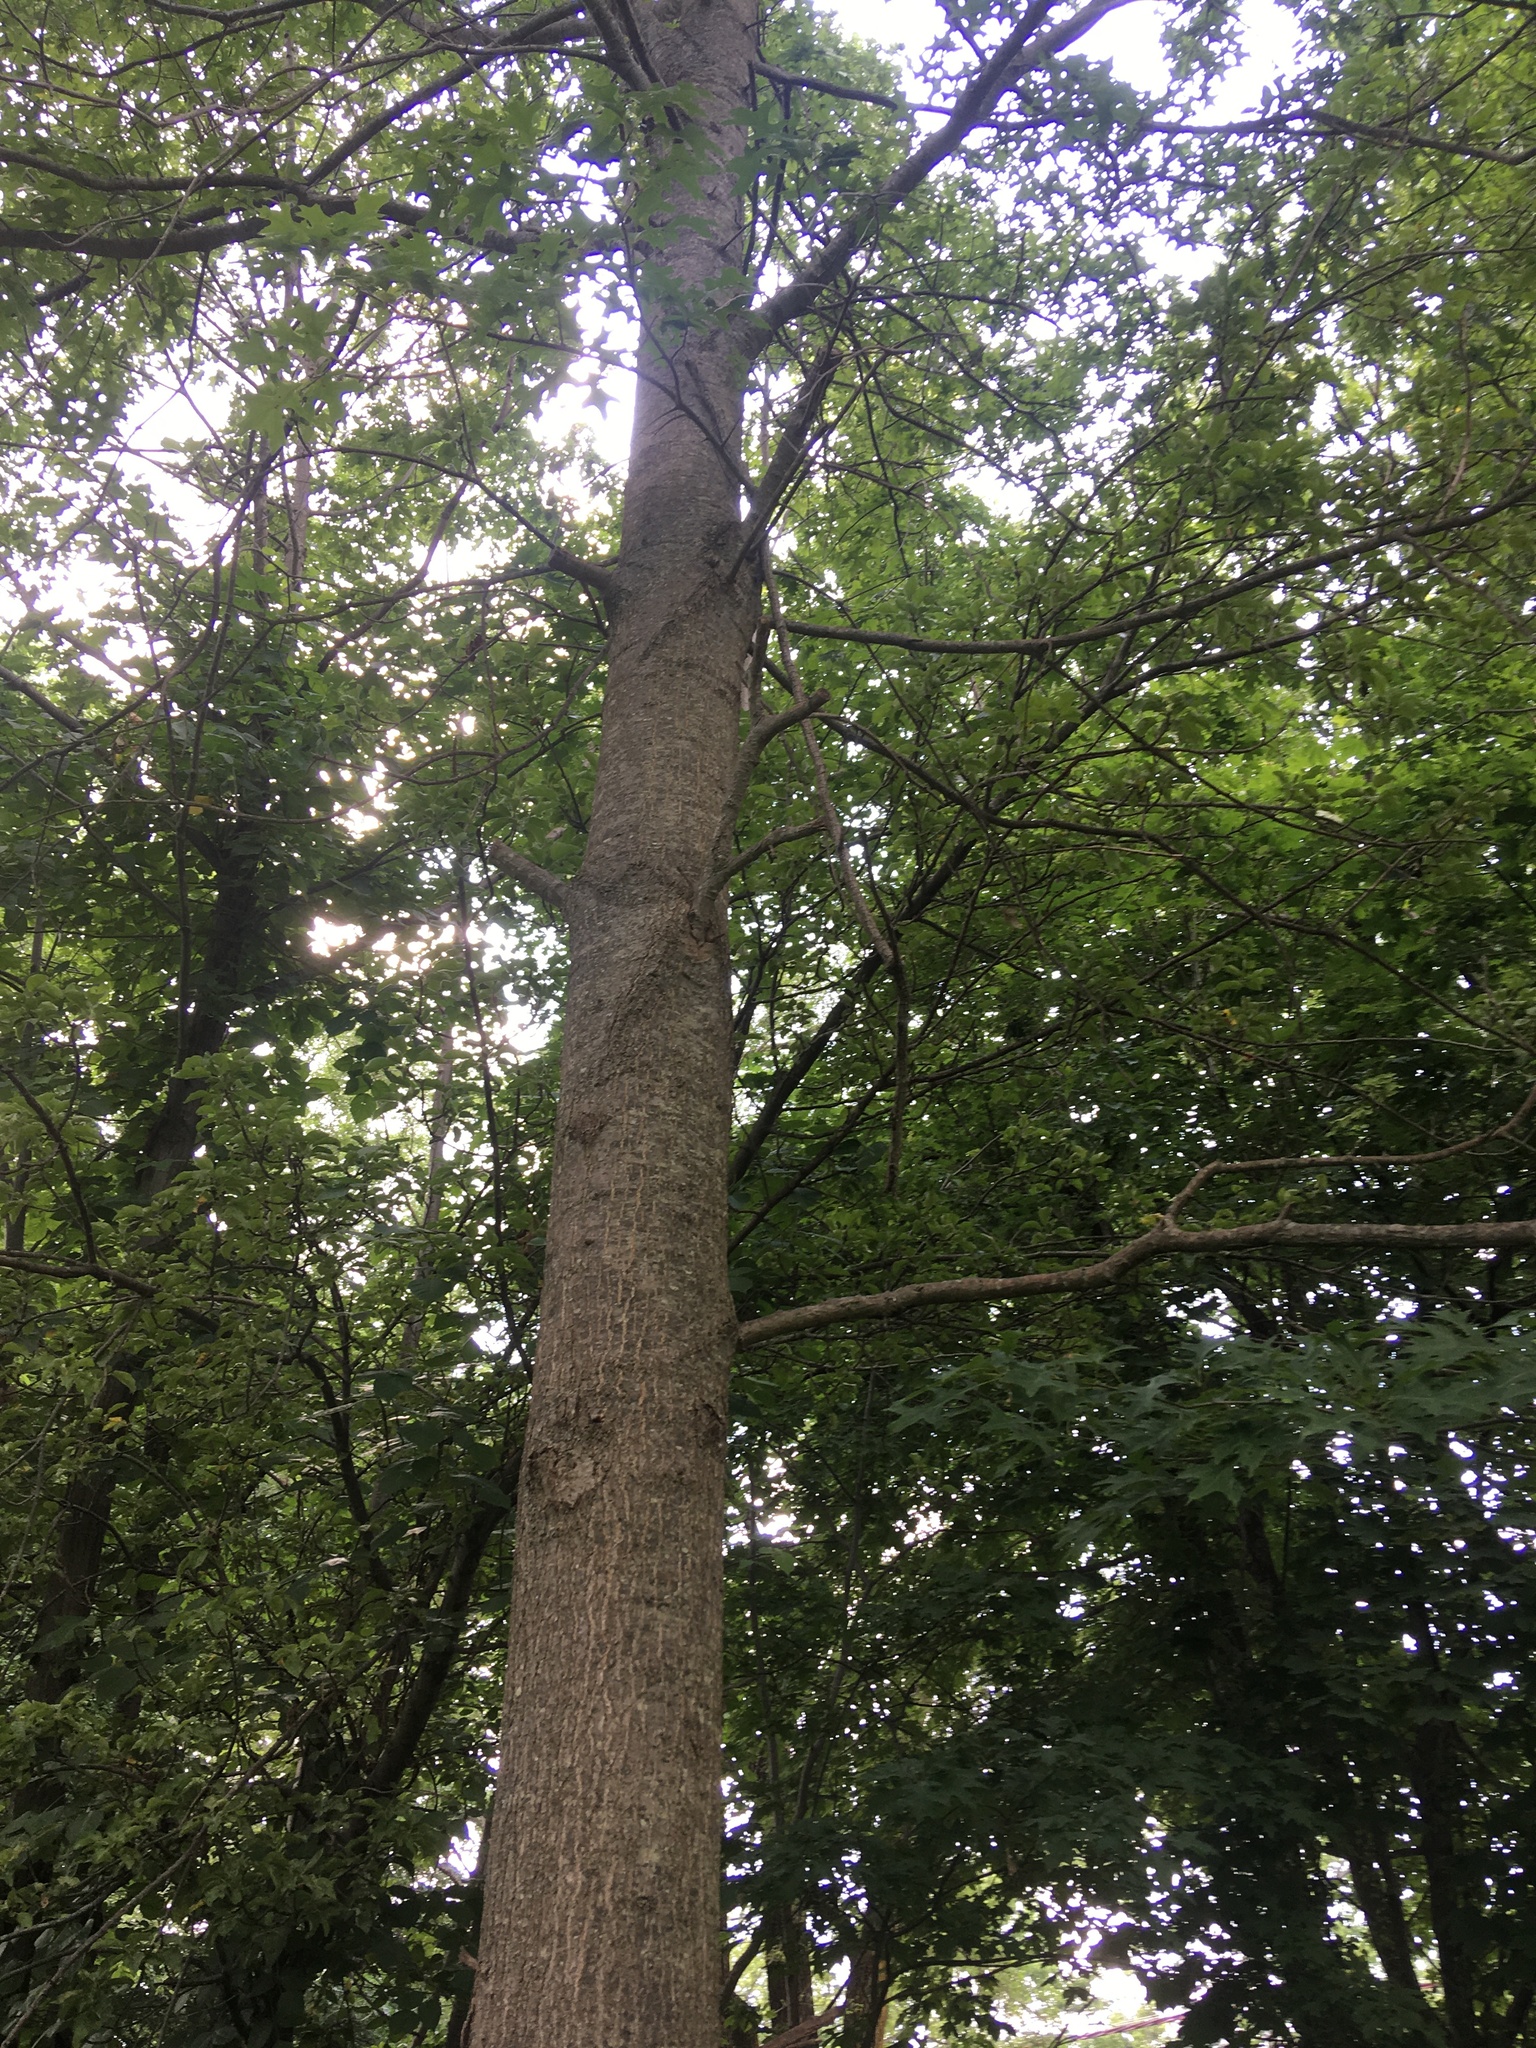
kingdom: Plantae
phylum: Tracheophyta
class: Magnoliopsida
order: Fagales
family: Fagaceae
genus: Quercus
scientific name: Quercus palustris
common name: Pin oak
